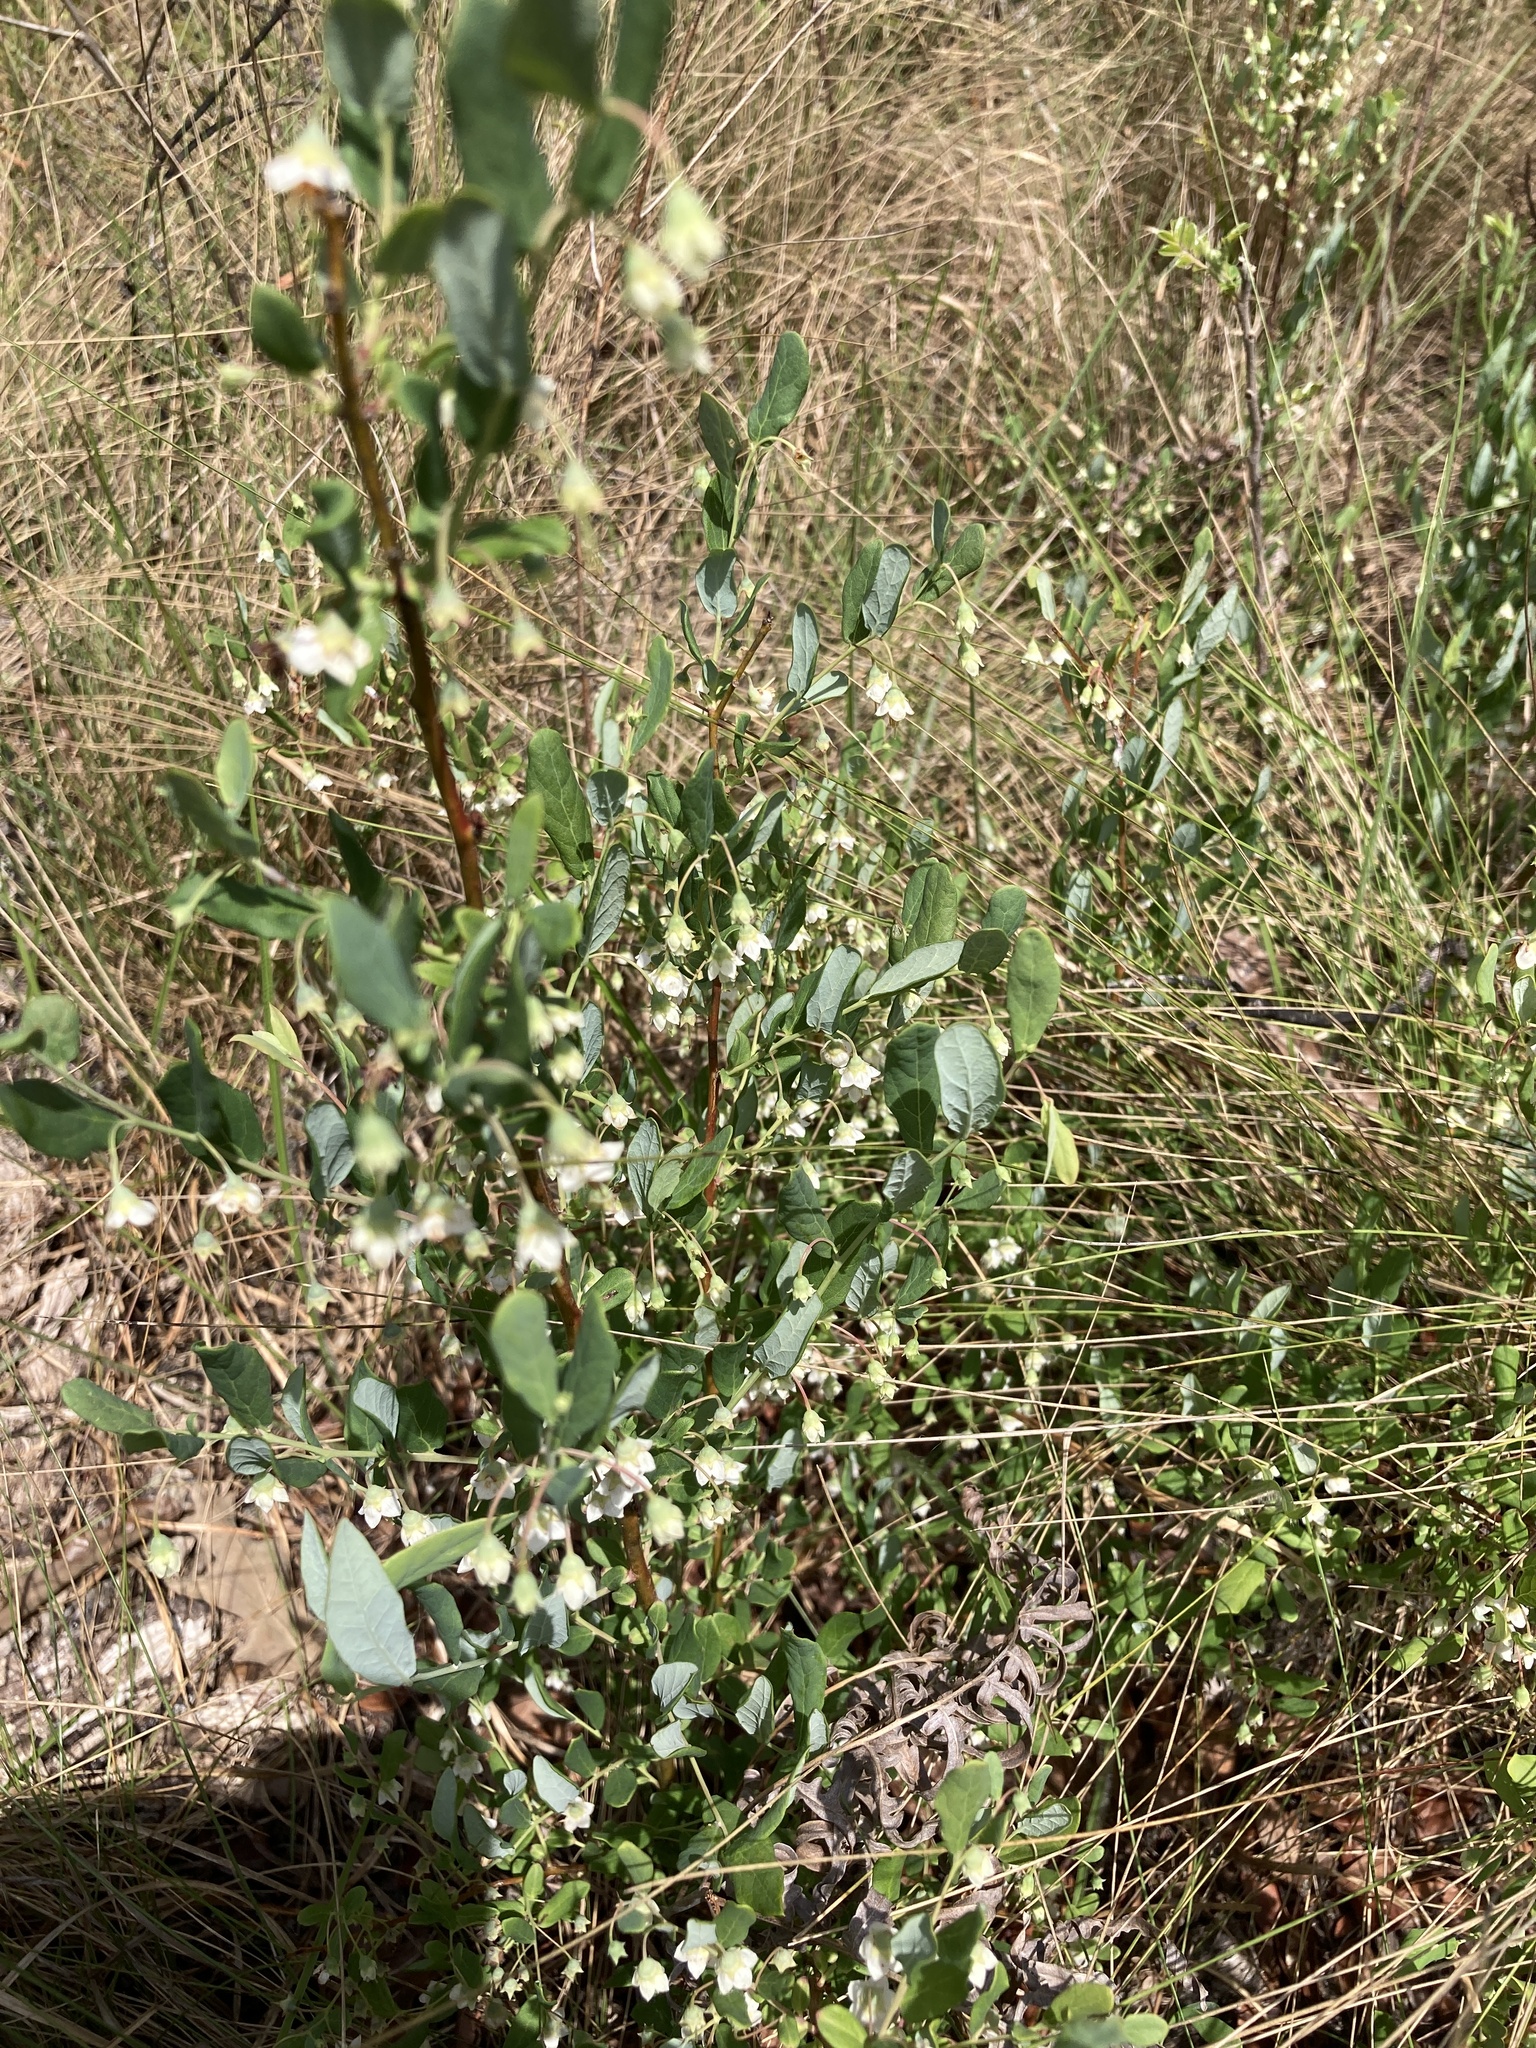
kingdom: Plantae
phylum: Tracheophyta
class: Magnoliopsida
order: Ericales
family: Ericaceae
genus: Vaccinium
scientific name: Vaccinium stamineum
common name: Deerberry
